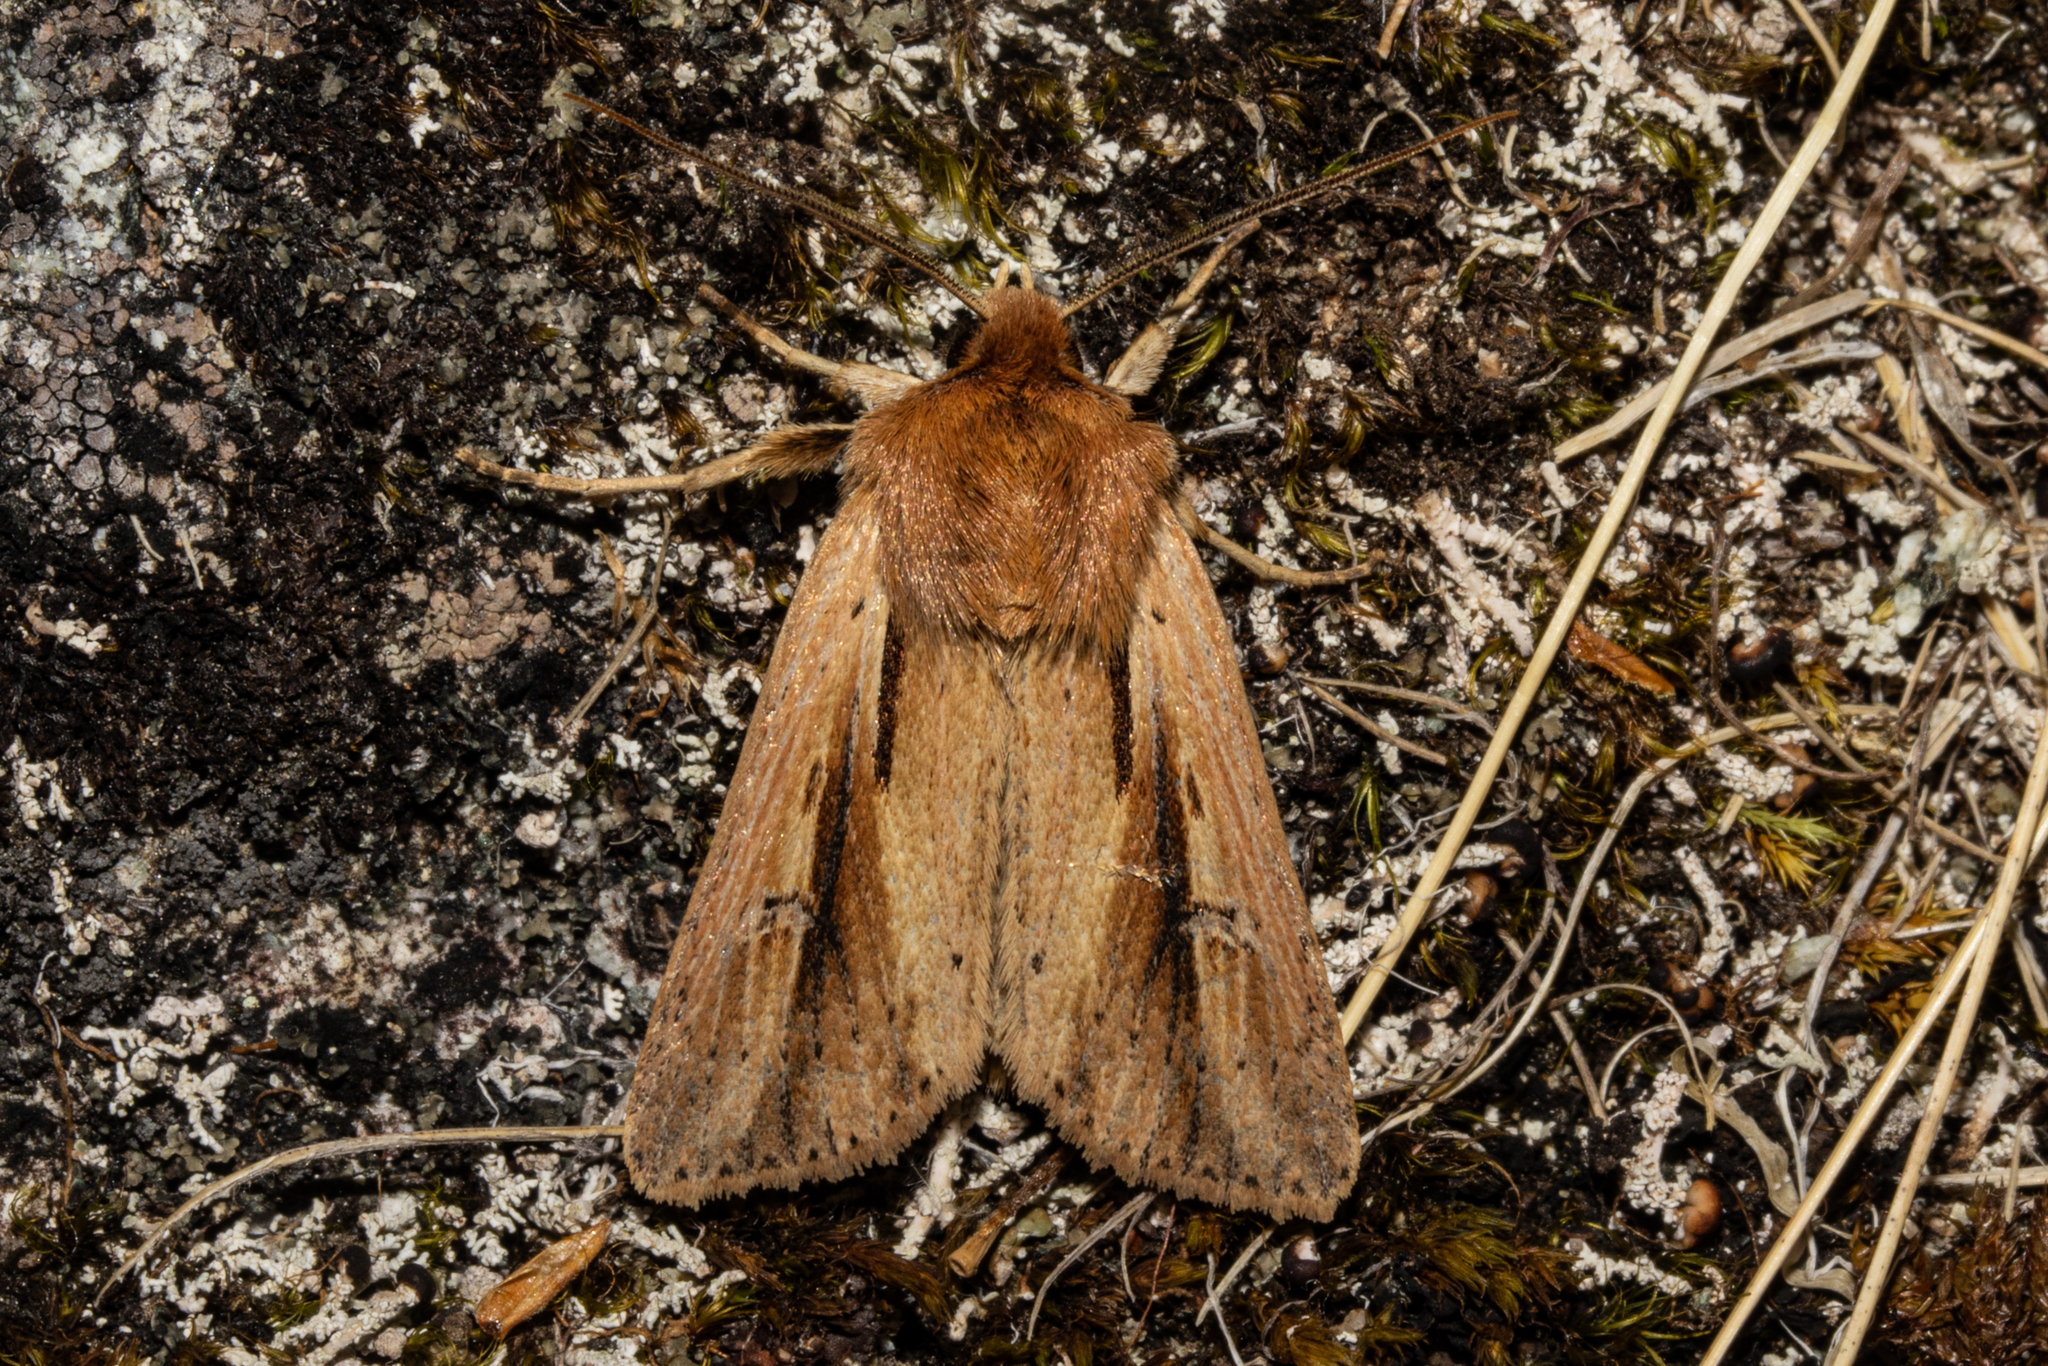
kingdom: Animalia
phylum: Arthropoda
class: Insecta
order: Lepidoptera
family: Noctuidae
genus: Ichneutica
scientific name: Ichneutica propria
